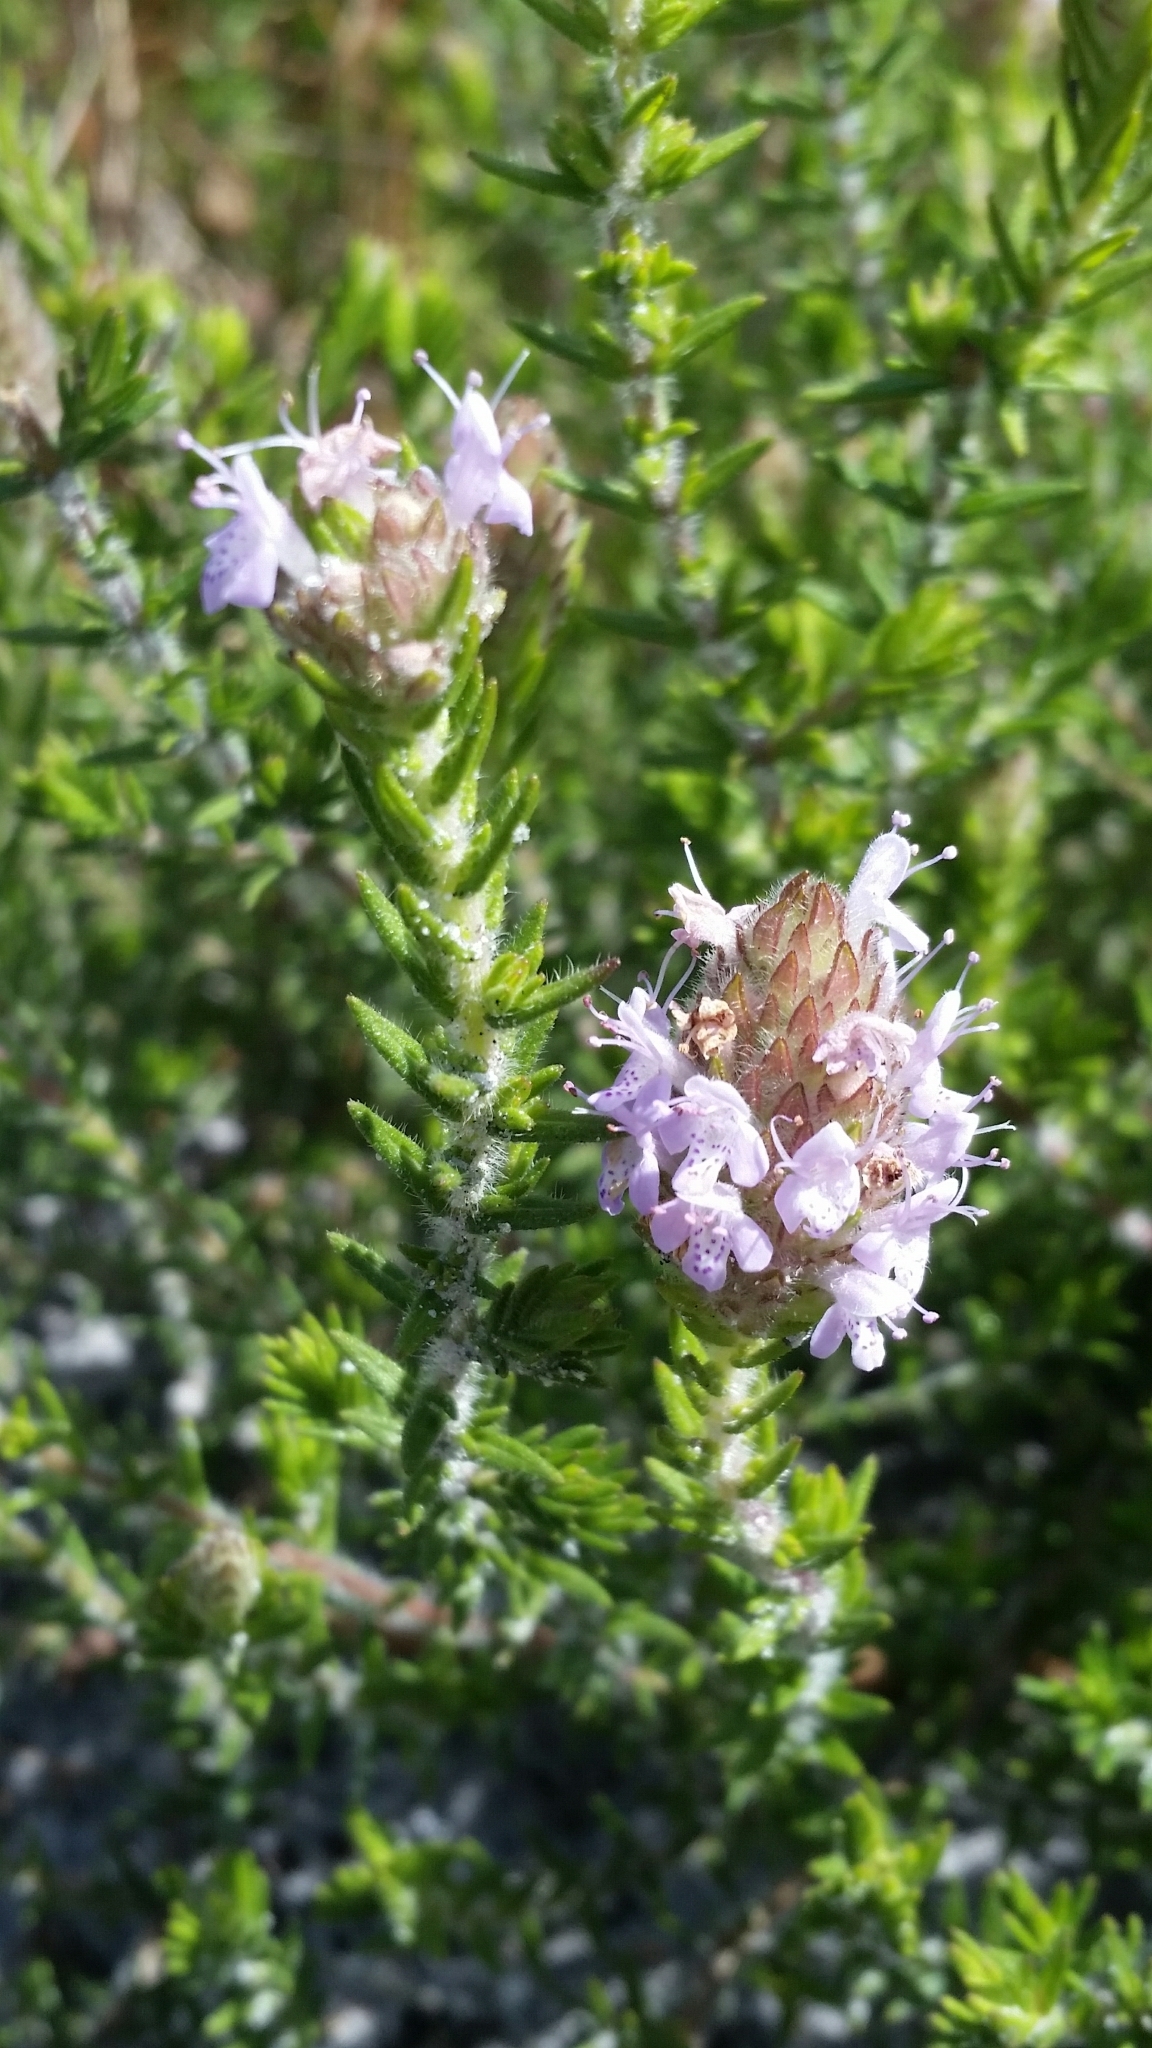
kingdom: Plantae
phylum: Tracheophyta
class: Magnoliopsida
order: Lamiales
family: Lamiaceae
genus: Piloblephis
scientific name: Piloblephis rigida
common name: Wild pennyroyal
